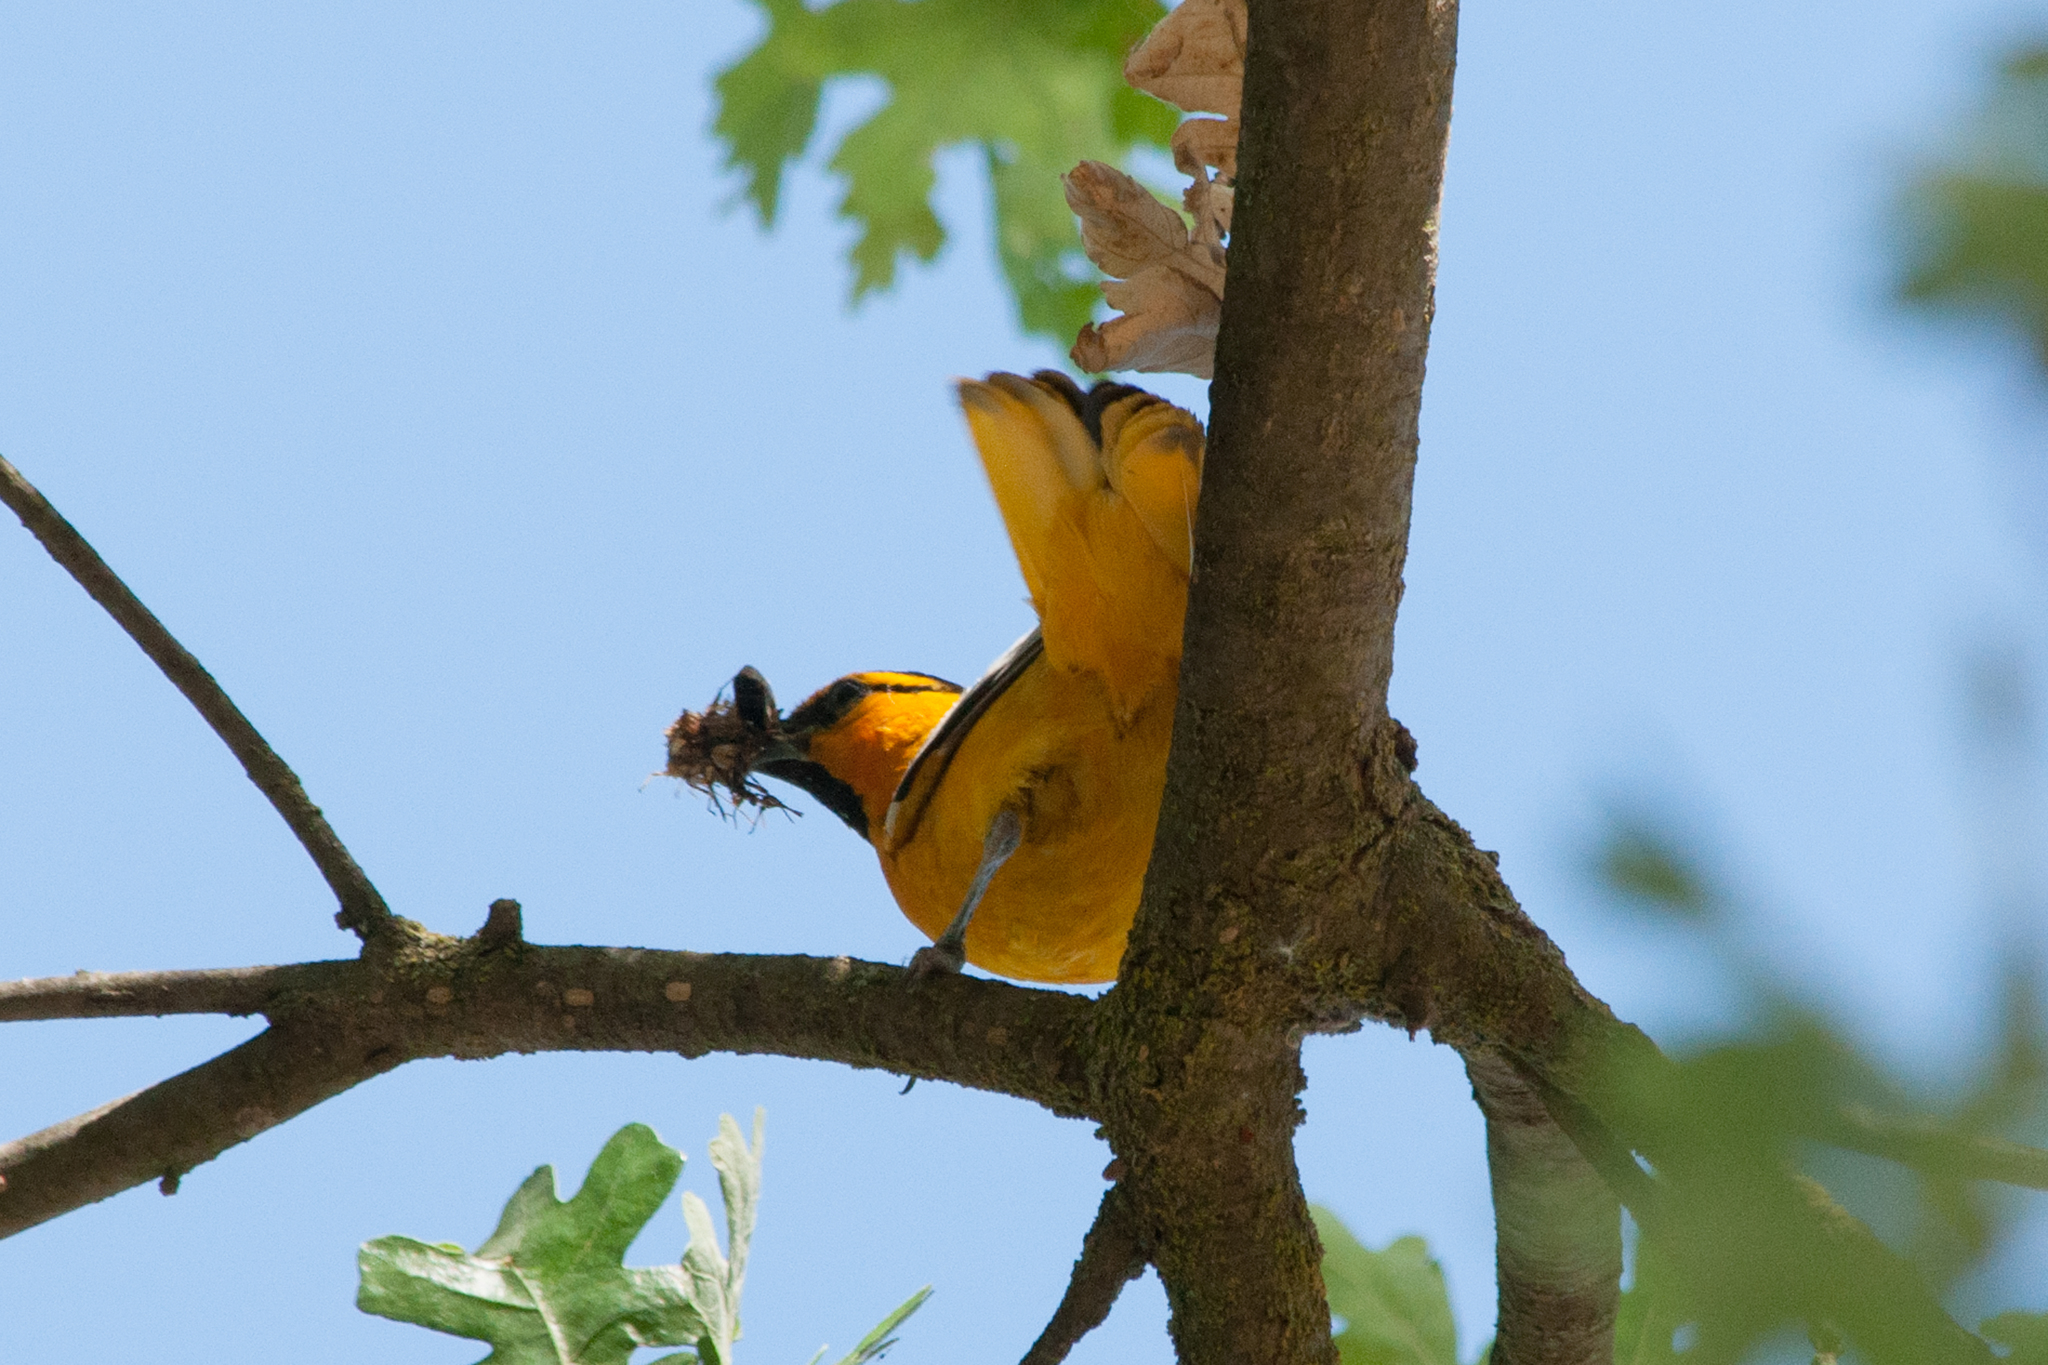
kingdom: Animalia
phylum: Chordata
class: Aves
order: Passeriformes
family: Icteridae
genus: Icterus
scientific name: Icterus bullockii
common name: Bullock's oriole
